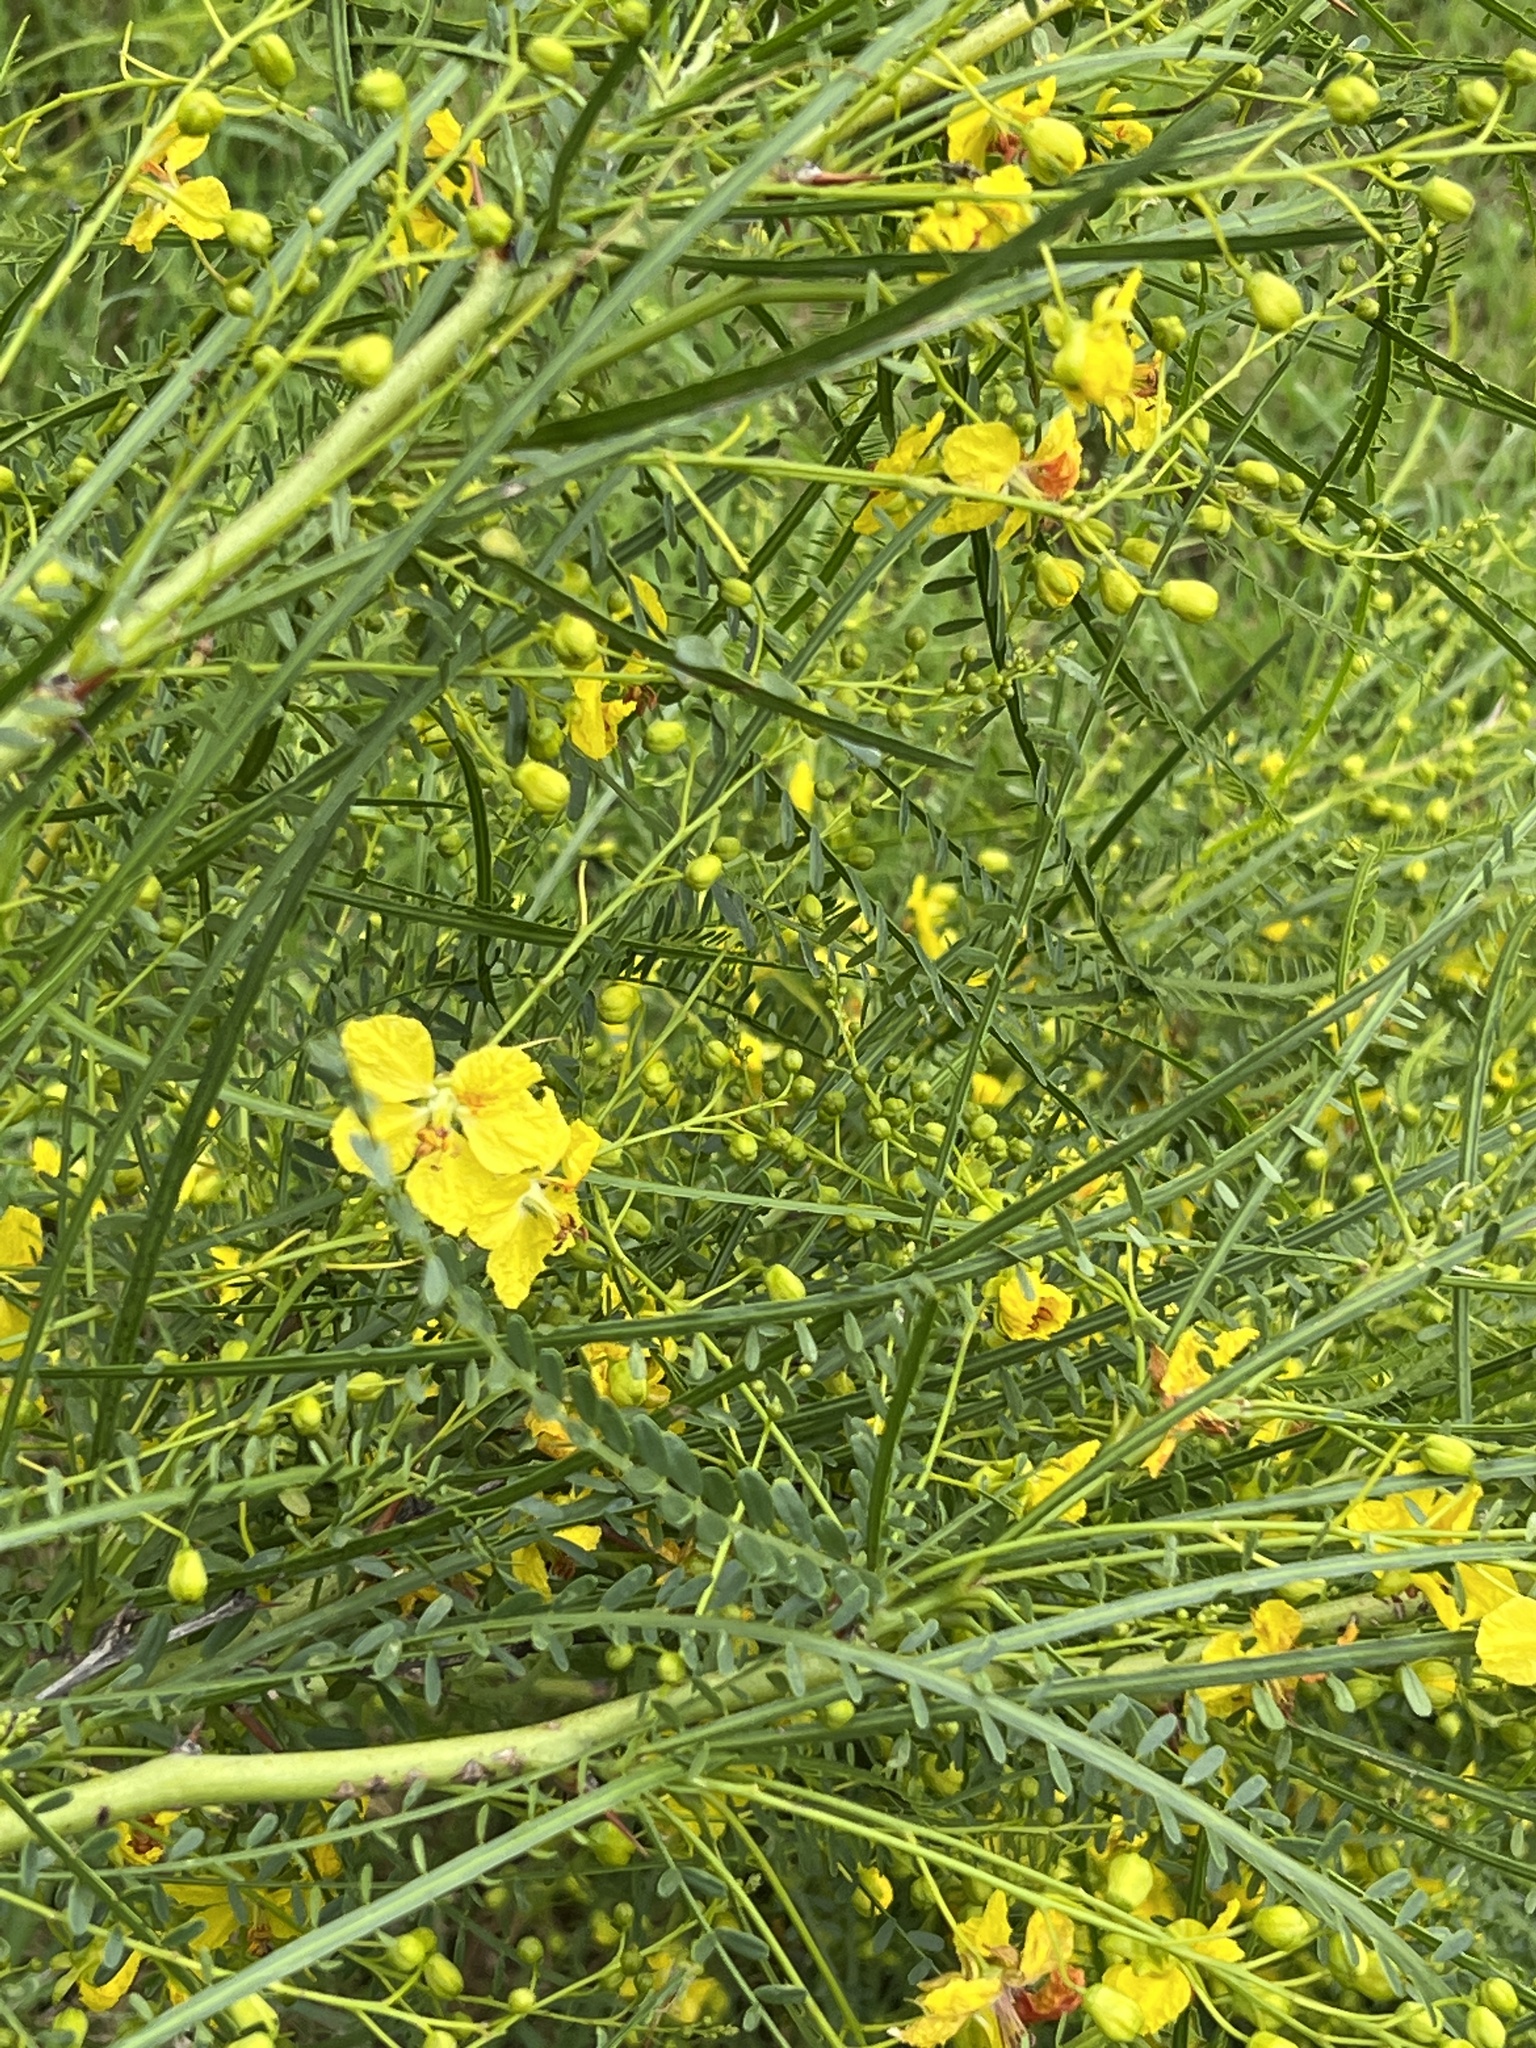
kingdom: Plantae
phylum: Tracheophyta
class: Magnoliopsida
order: Fabales
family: Fabaceae
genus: Parkinsonia
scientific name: Parkinsonia aculeata
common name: Jerusalem thorn
